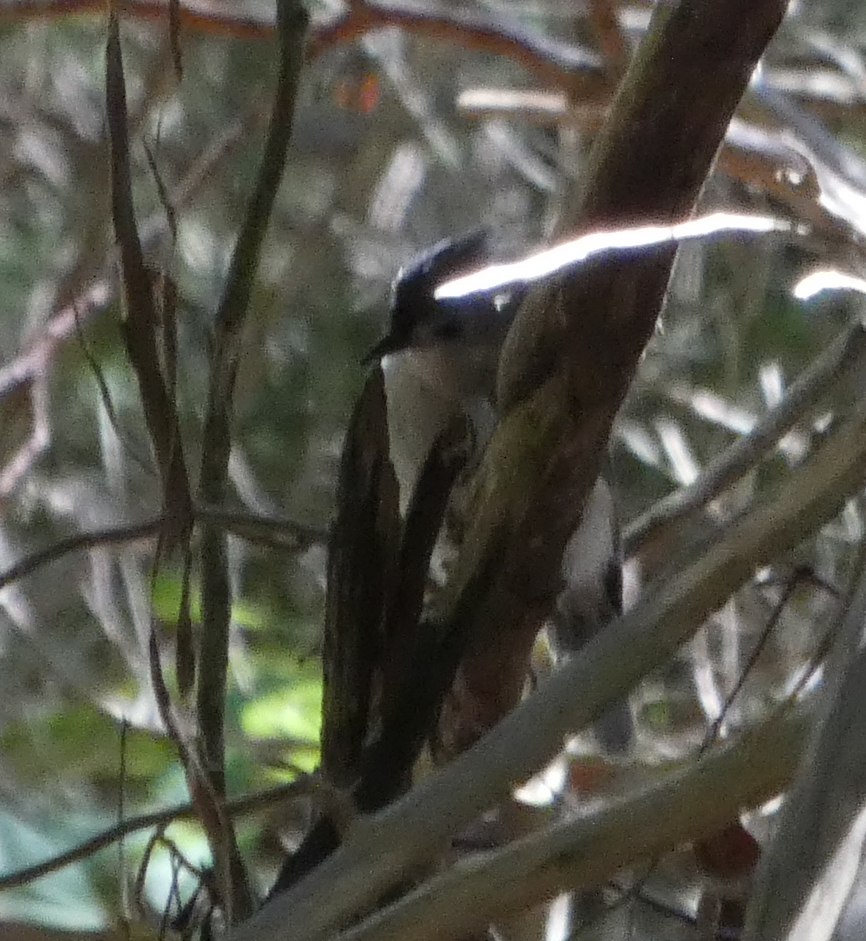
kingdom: Animalia
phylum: Chordata
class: Aves
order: Passeriformes
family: Paridae
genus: Baeolophus
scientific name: Baeolophus bicolor
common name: Tufted titmouse
